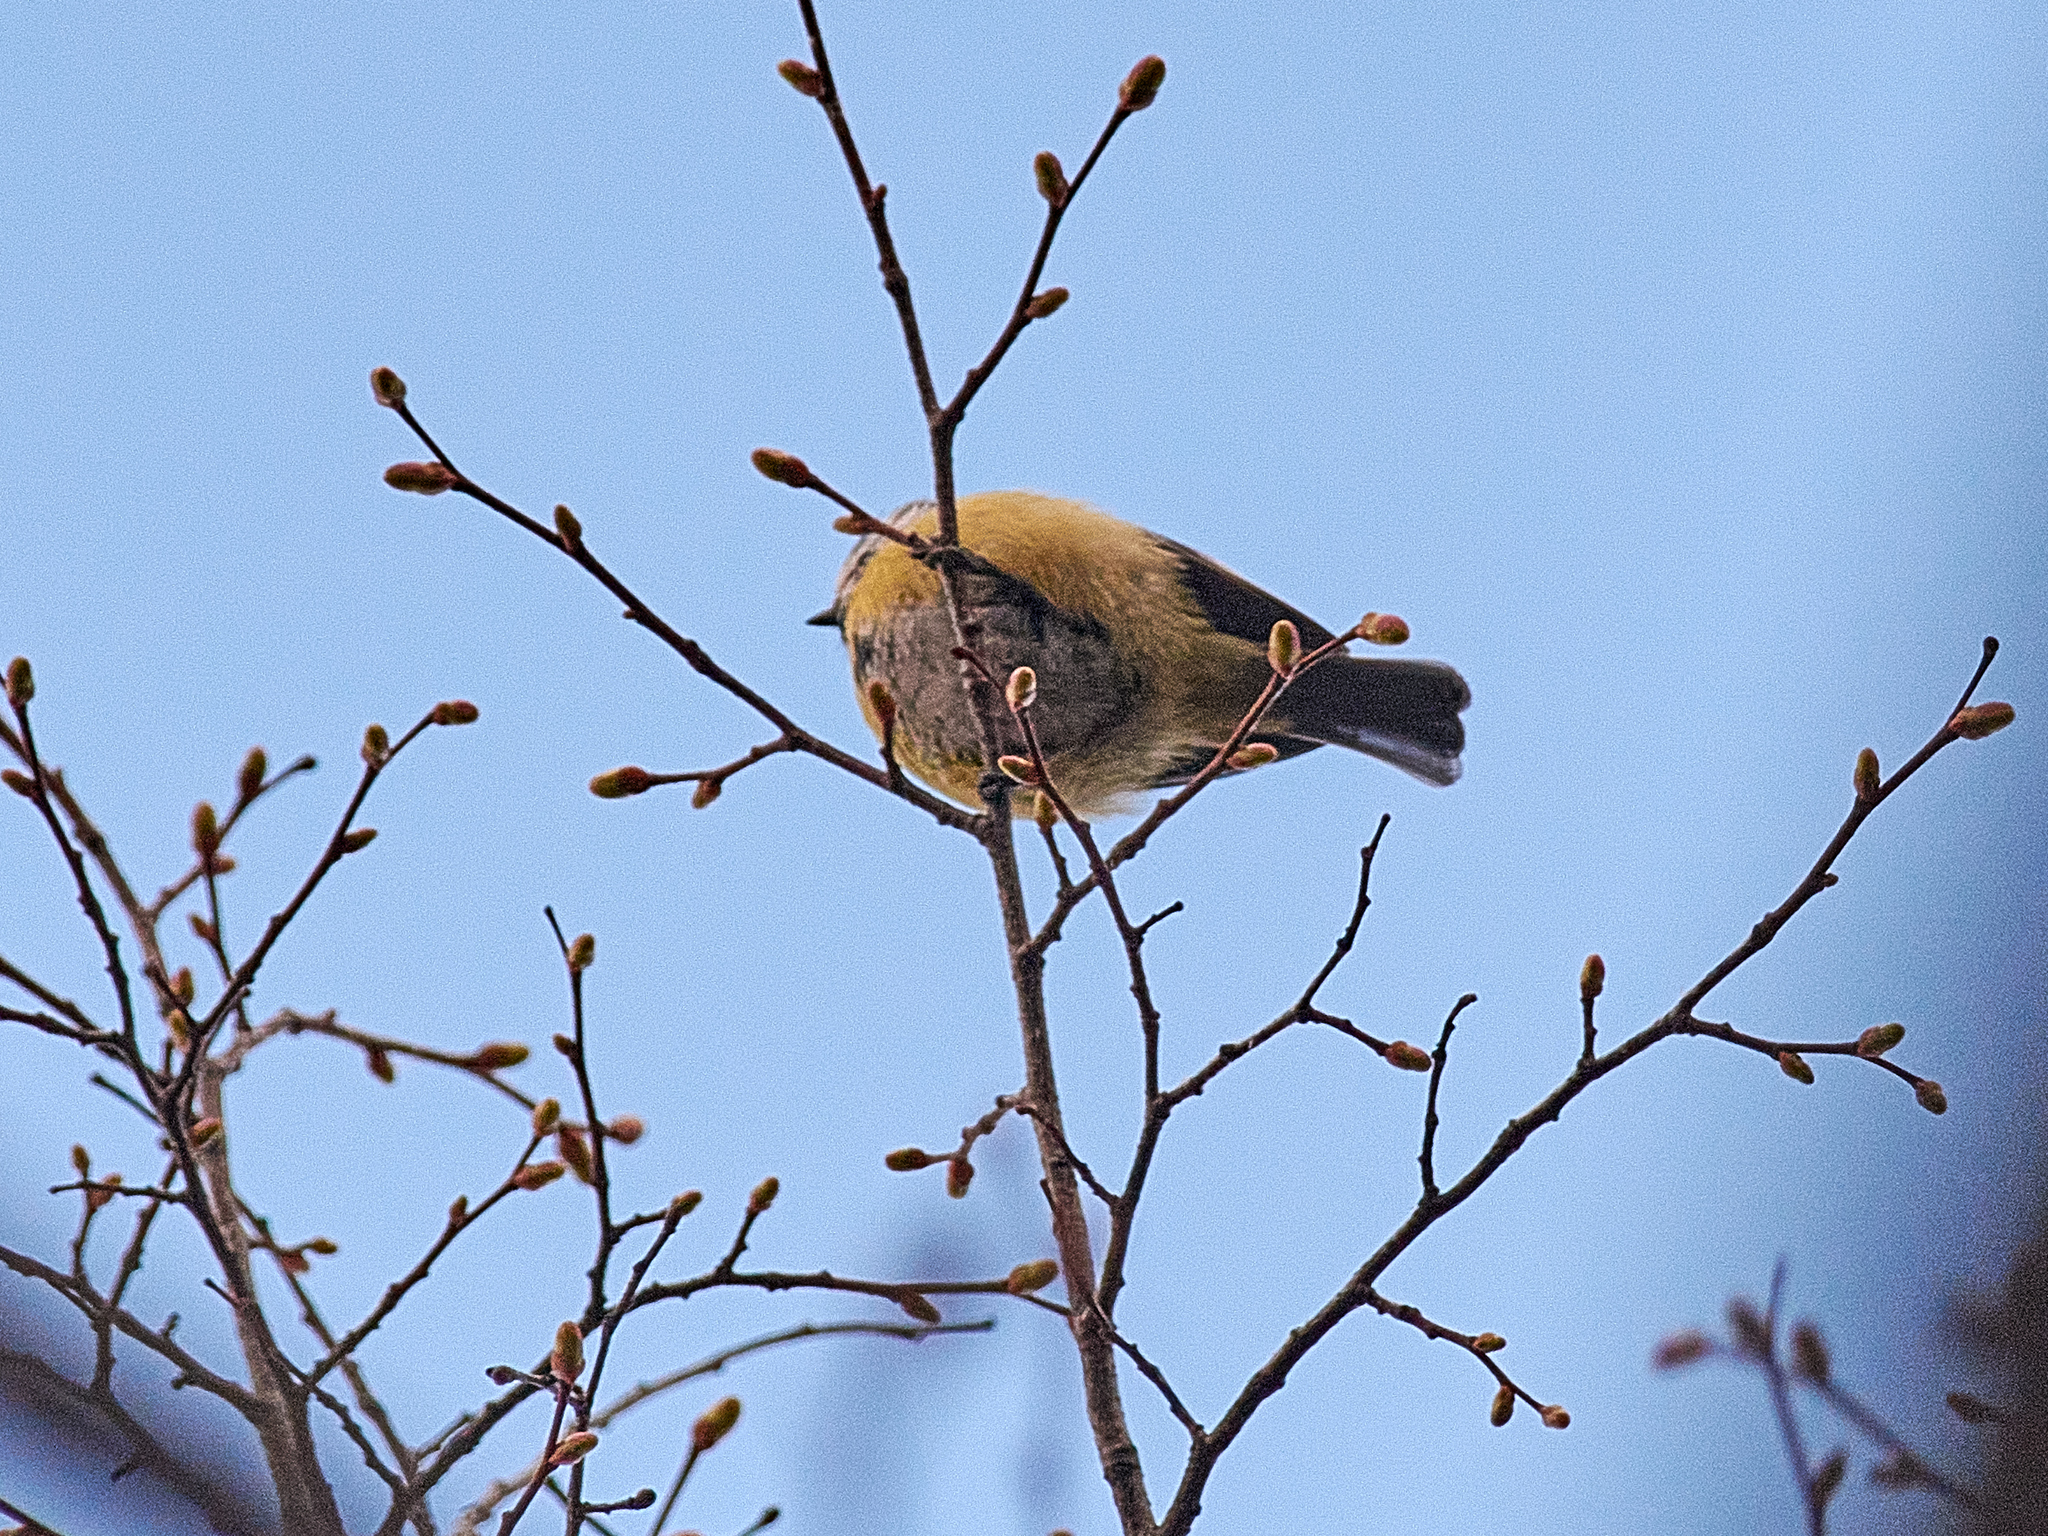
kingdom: Animalia
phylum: Chordata
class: Aves
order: Passeriformes
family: Paridae
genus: Cyanistes
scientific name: Cyanistes caeruleus
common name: Eurasian blue tit
